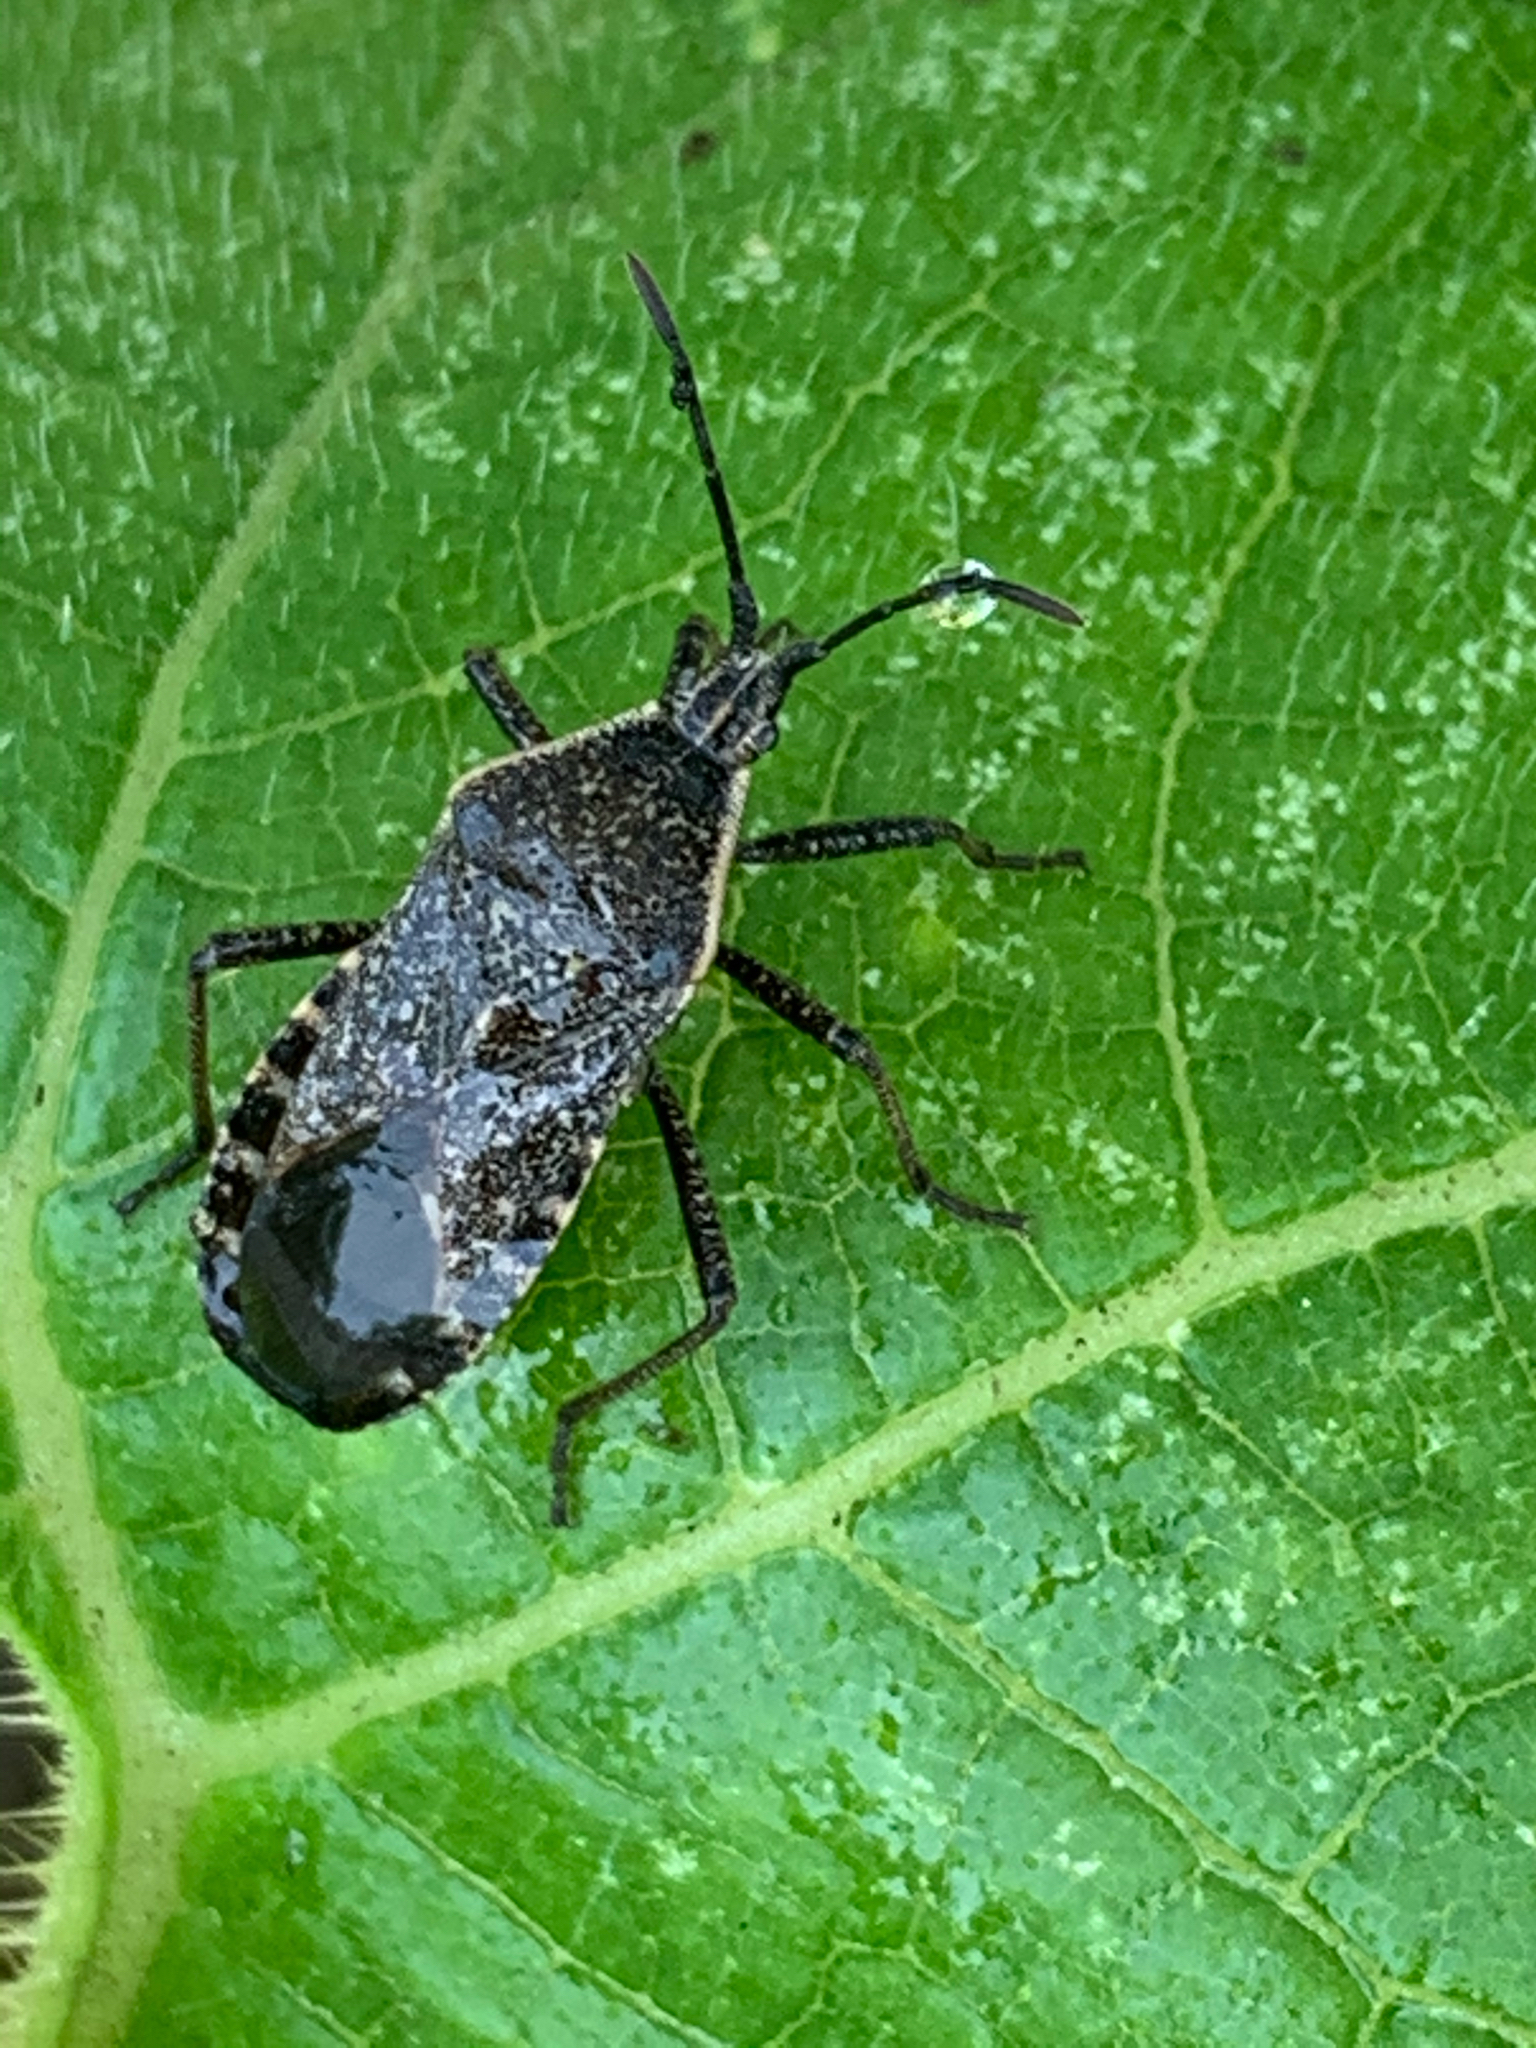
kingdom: Animalia
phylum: Arthropoda
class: Insecta
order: Hemiptera
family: Coreidae
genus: Anasa
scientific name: Anasa tristis
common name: Squash bug
